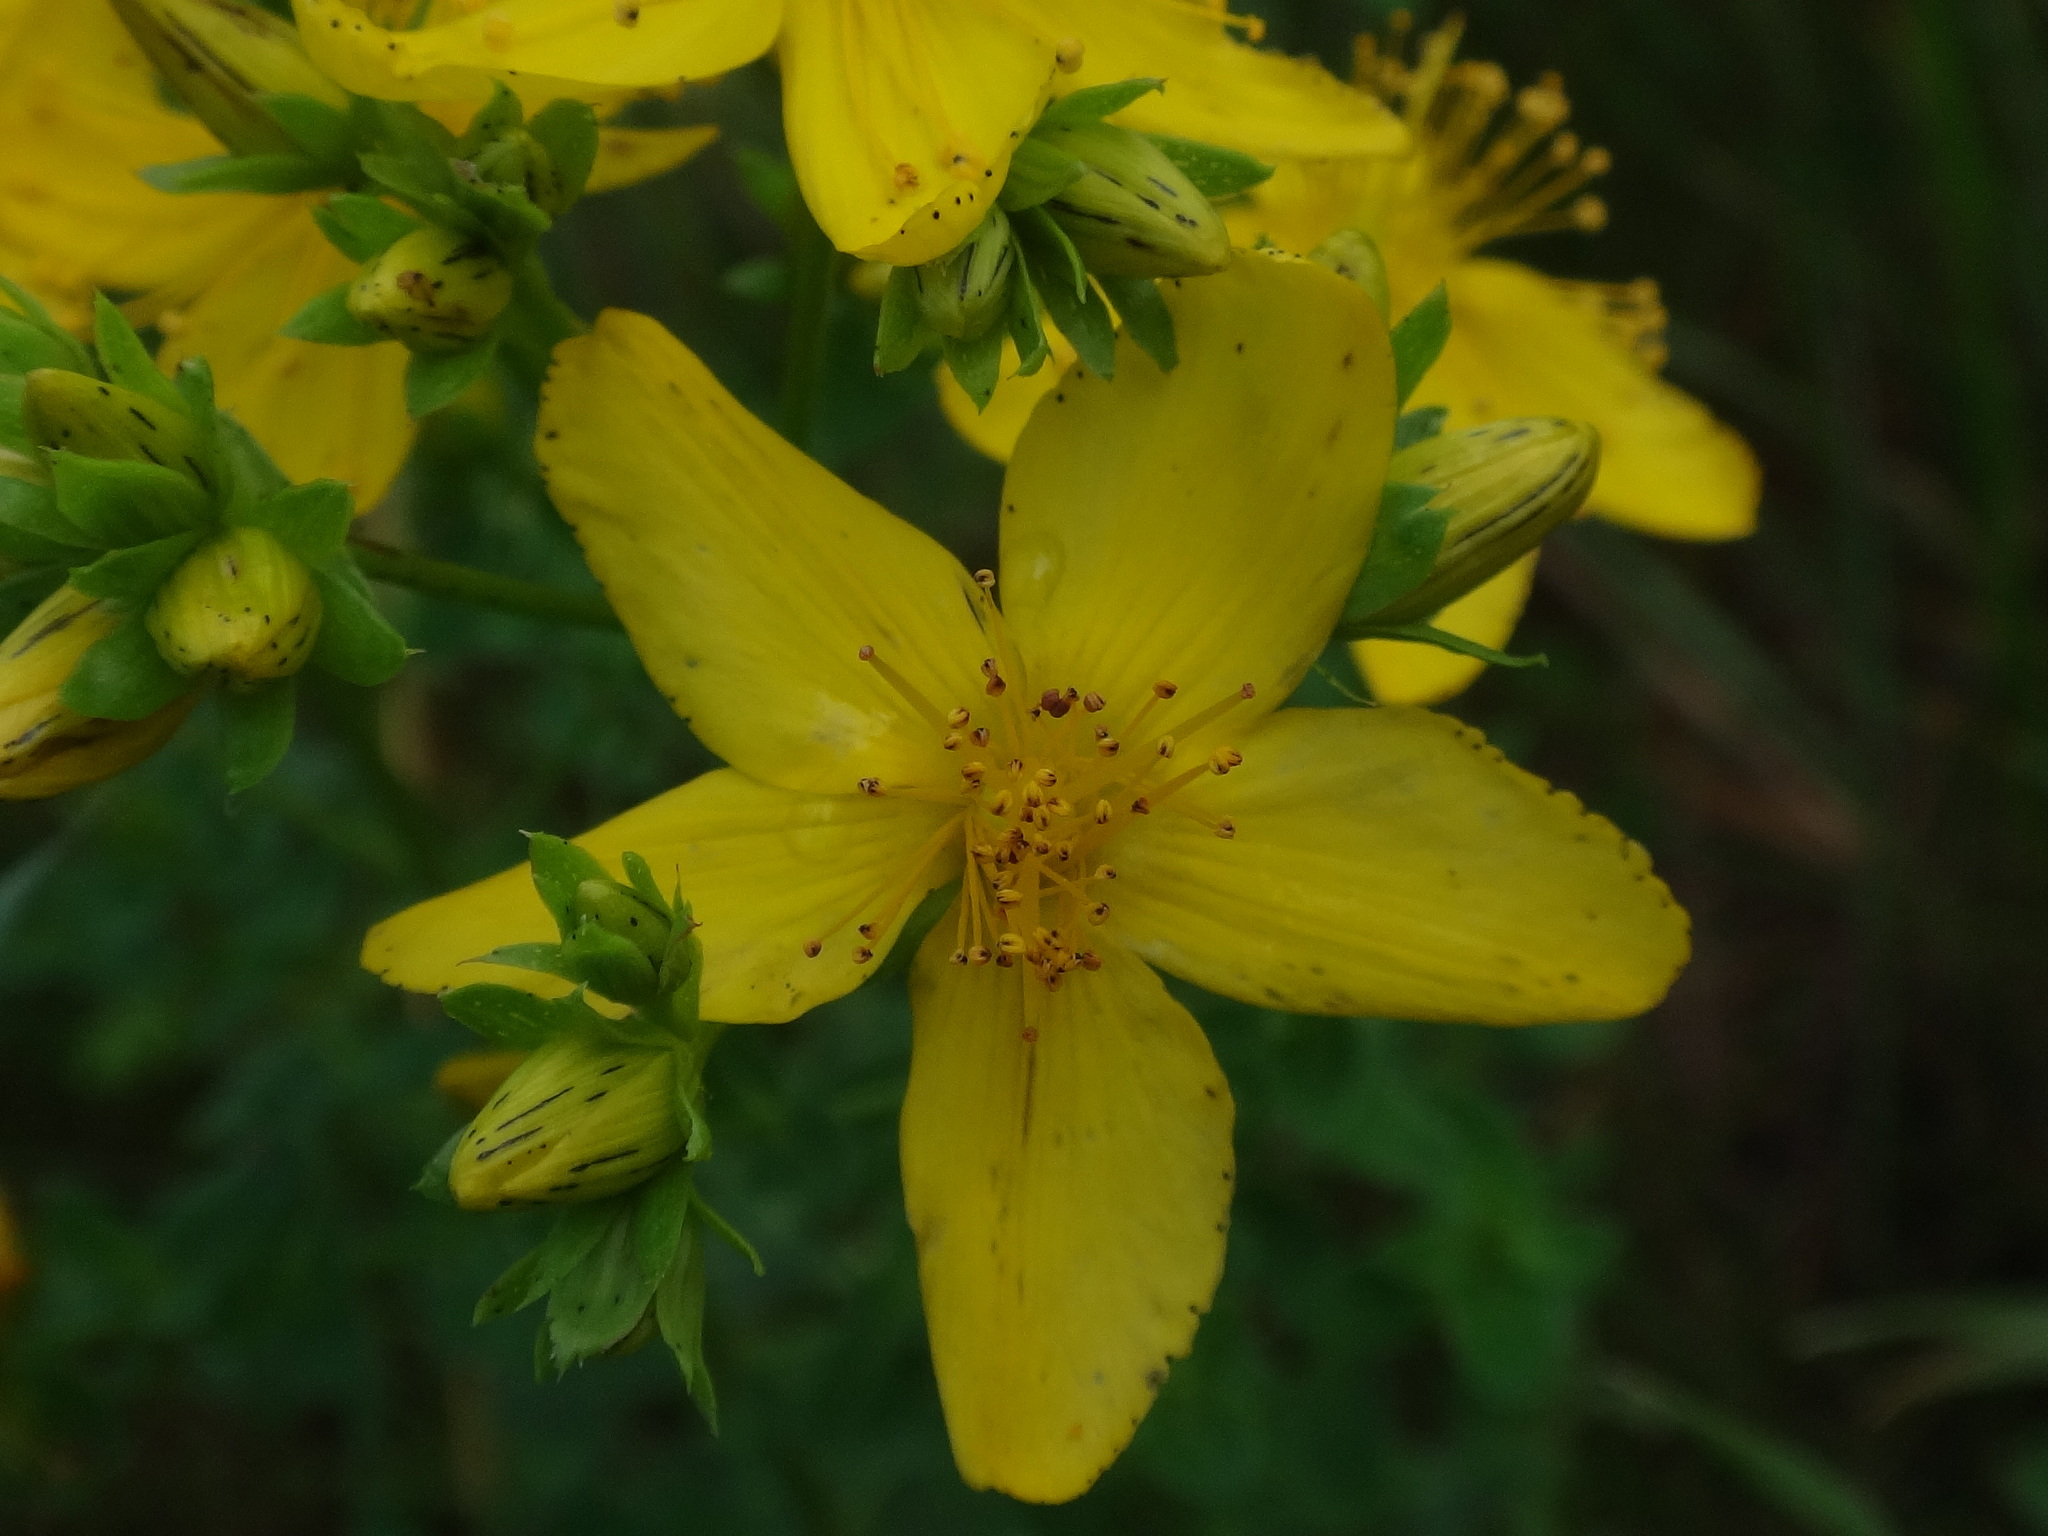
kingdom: Plantae
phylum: Tracheophyta
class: Magnoliopsida
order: Malpighiales
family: Hypericaceae
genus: Hypericum
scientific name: Hypericum perforatum
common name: Common st. johnswort
